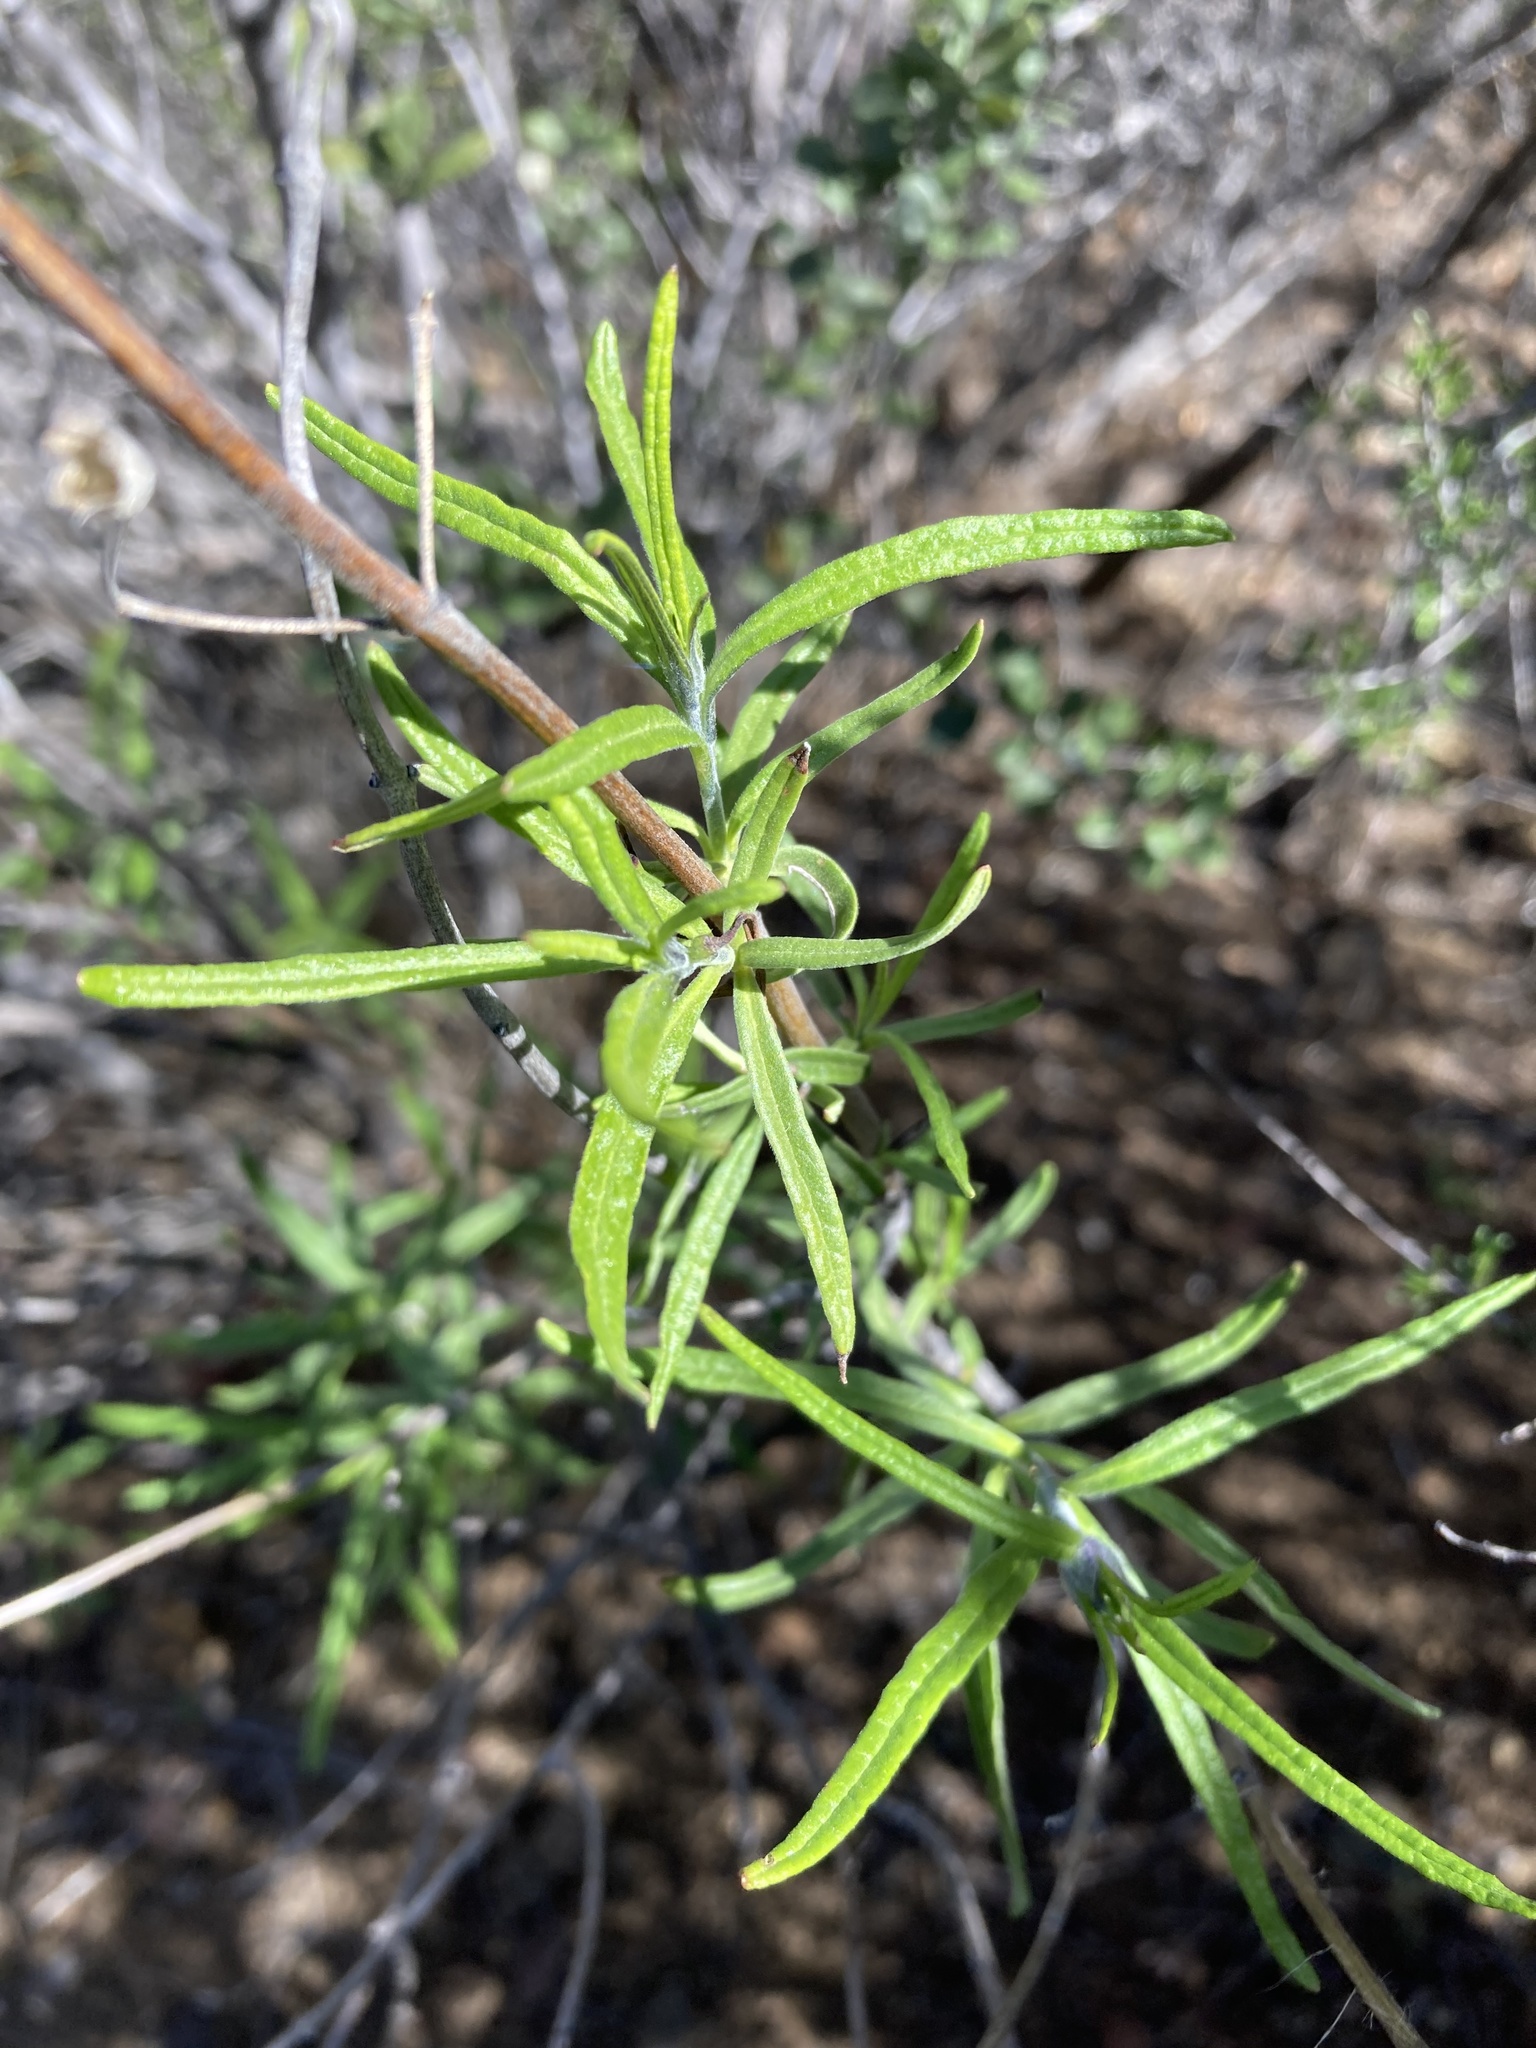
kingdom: Plantae
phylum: Tracheophyta
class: Magnoliopsida
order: Lamiales
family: Lamiaceae
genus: Trichostema
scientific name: Trichostema parishii
